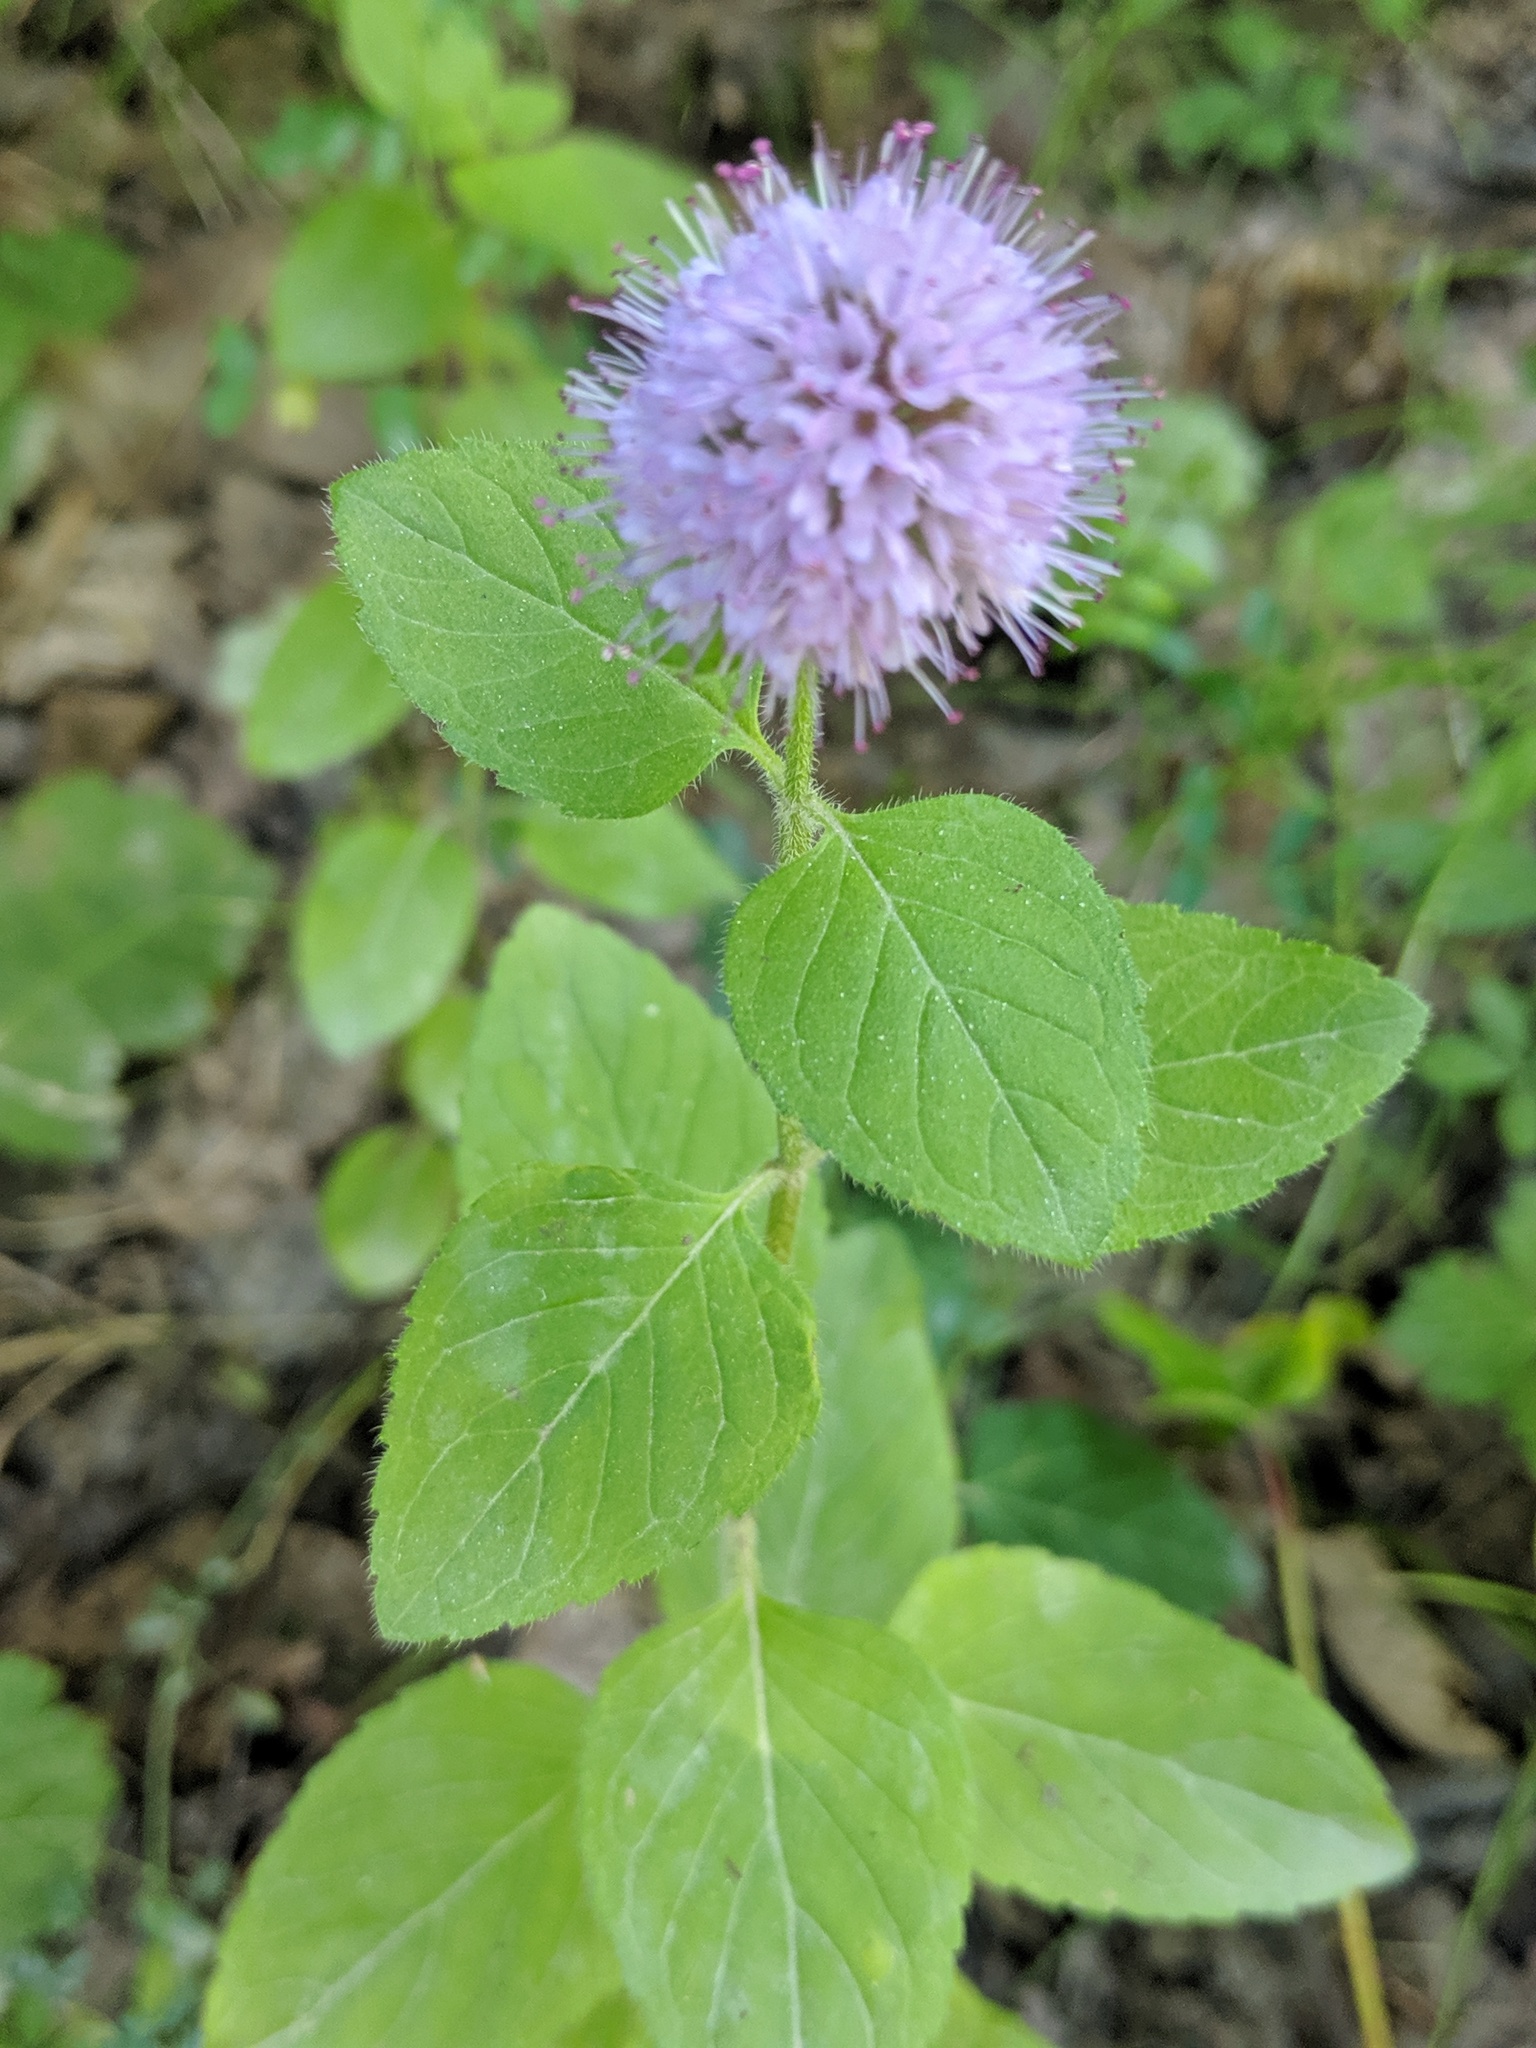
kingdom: Plantae
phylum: Tracheophyta
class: Magnoliopsida
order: Lamiales
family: Lamiaceae
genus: Mentha
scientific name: Mentha aquatica
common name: Water mint
